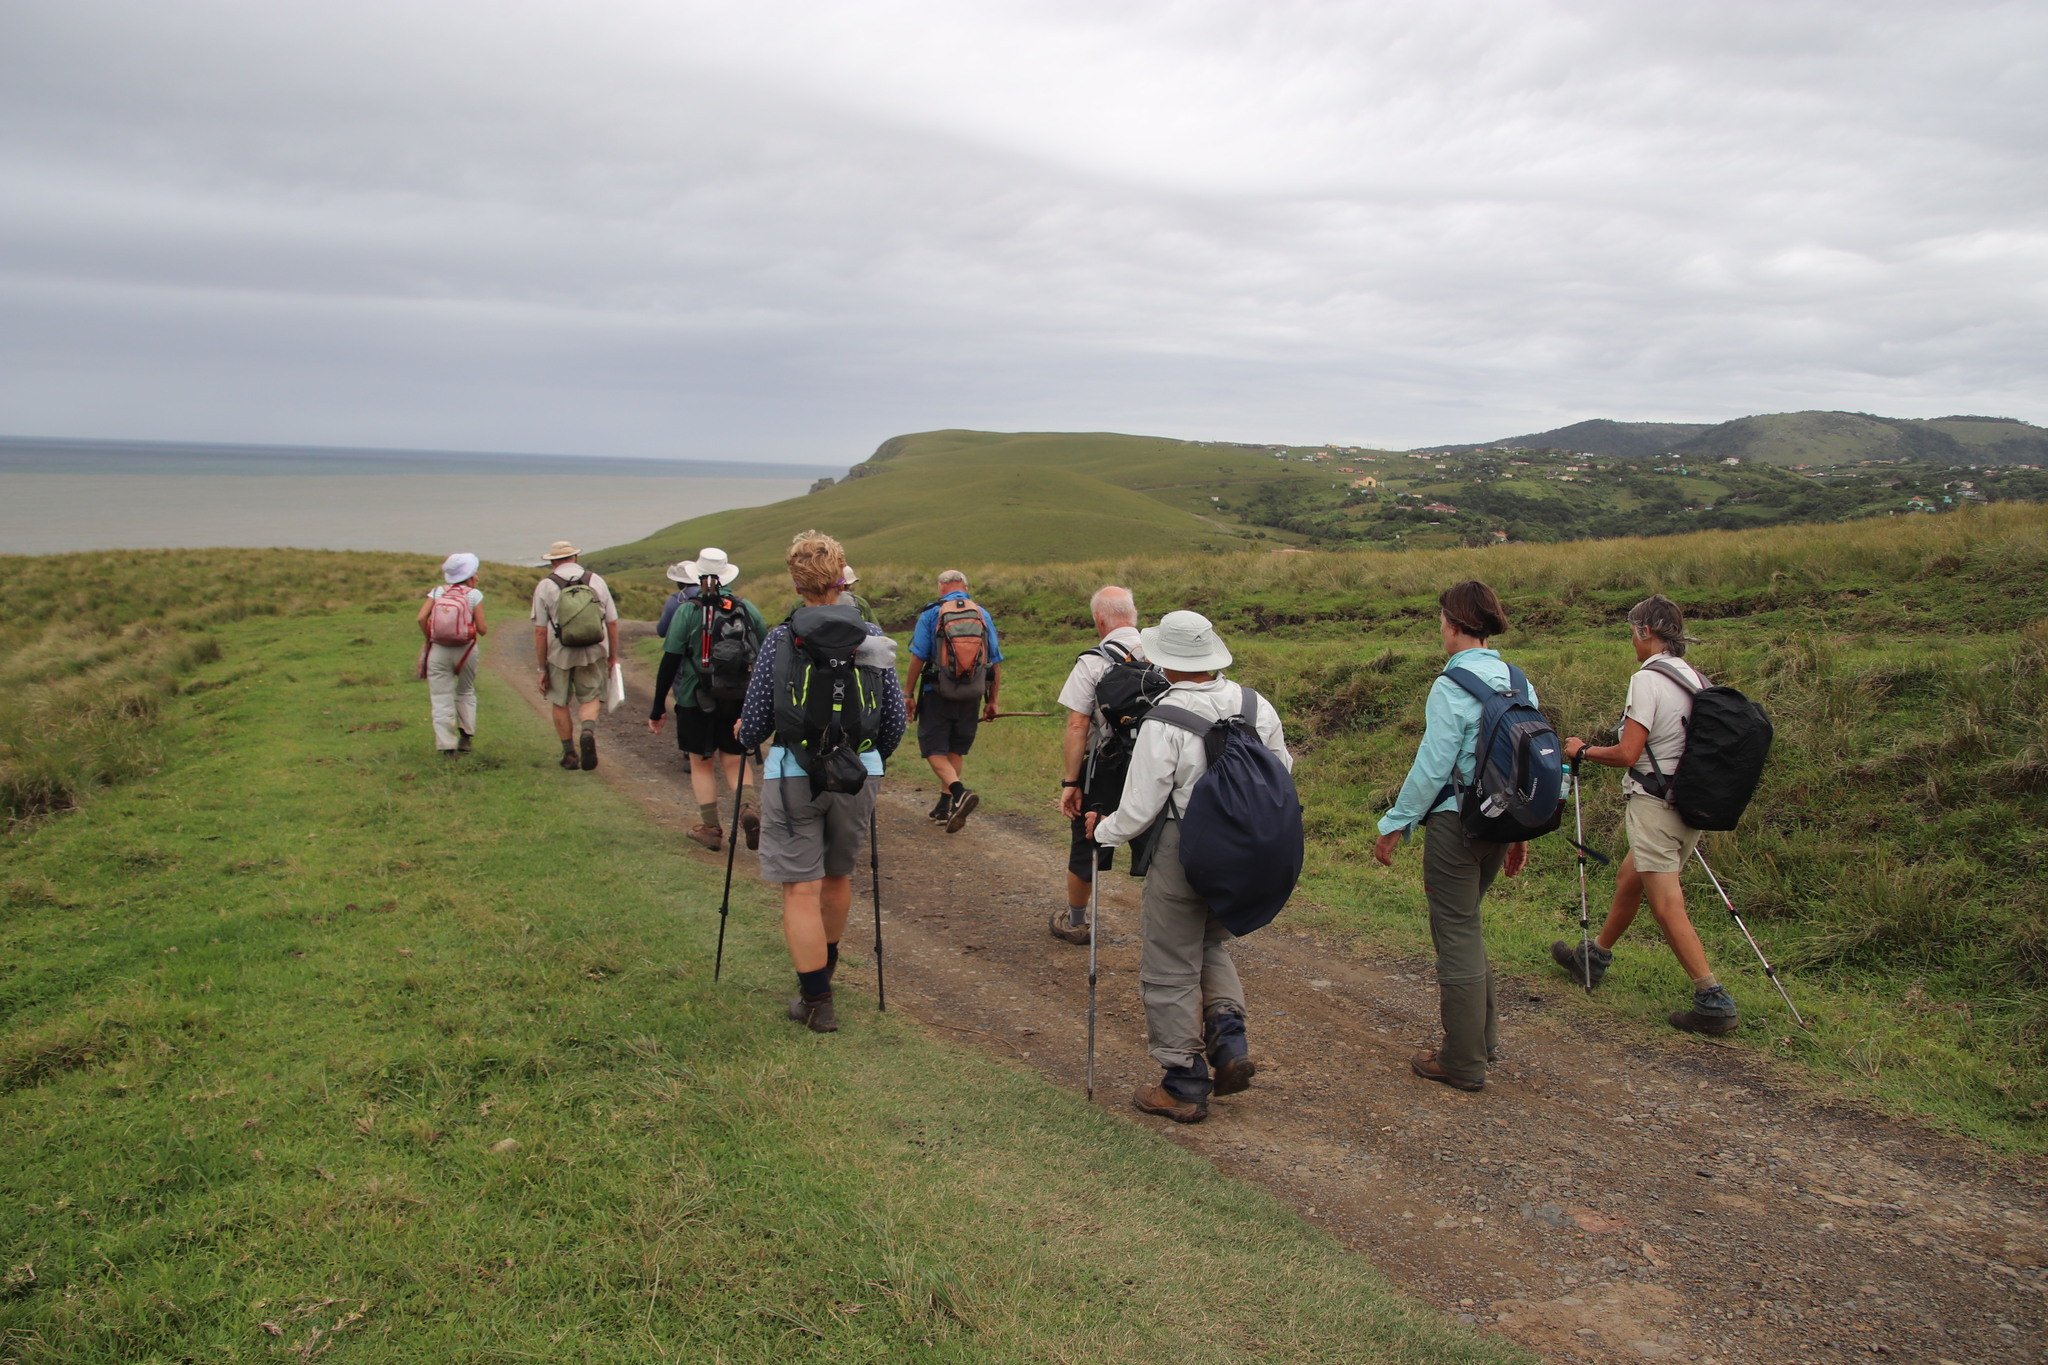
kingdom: Plantae
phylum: Tracheophyta
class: Liliopsida
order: Poales
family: Poaceae
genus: Stenotaphrum
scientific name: Stenotaphrum secundatum
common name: St. augustine grass
